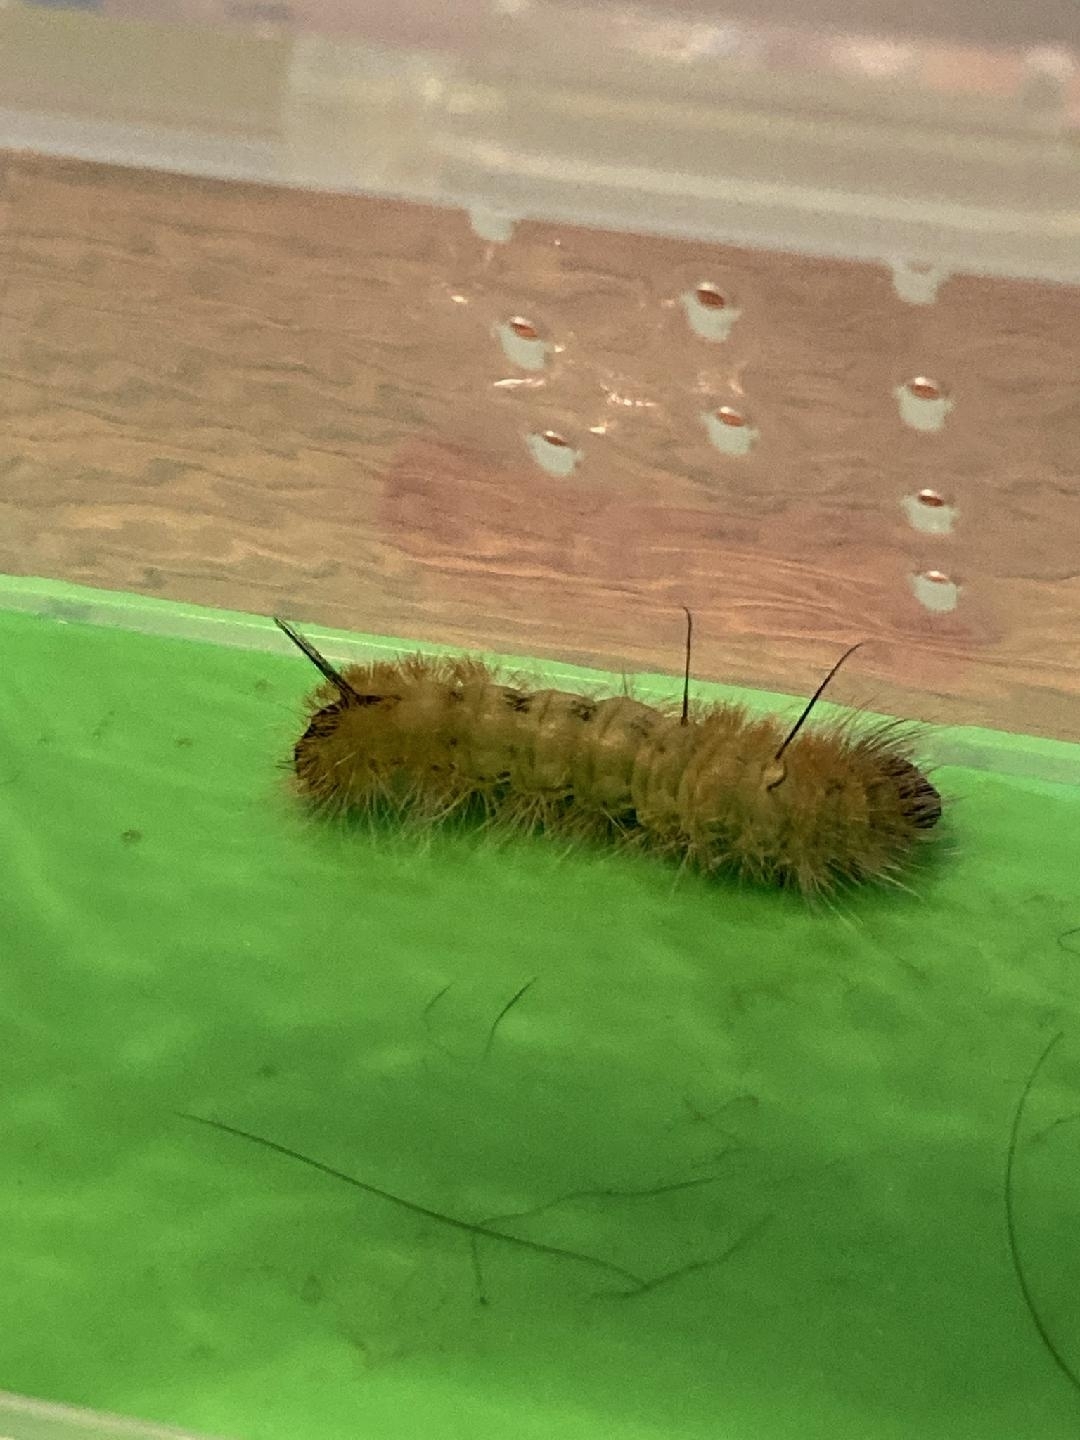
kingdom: Animalia
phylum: Arthropoda
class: Insecta
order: Lepidoptera
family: Noctuidae
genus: Acronicta
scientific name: Acronicta americana
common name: American dagger
